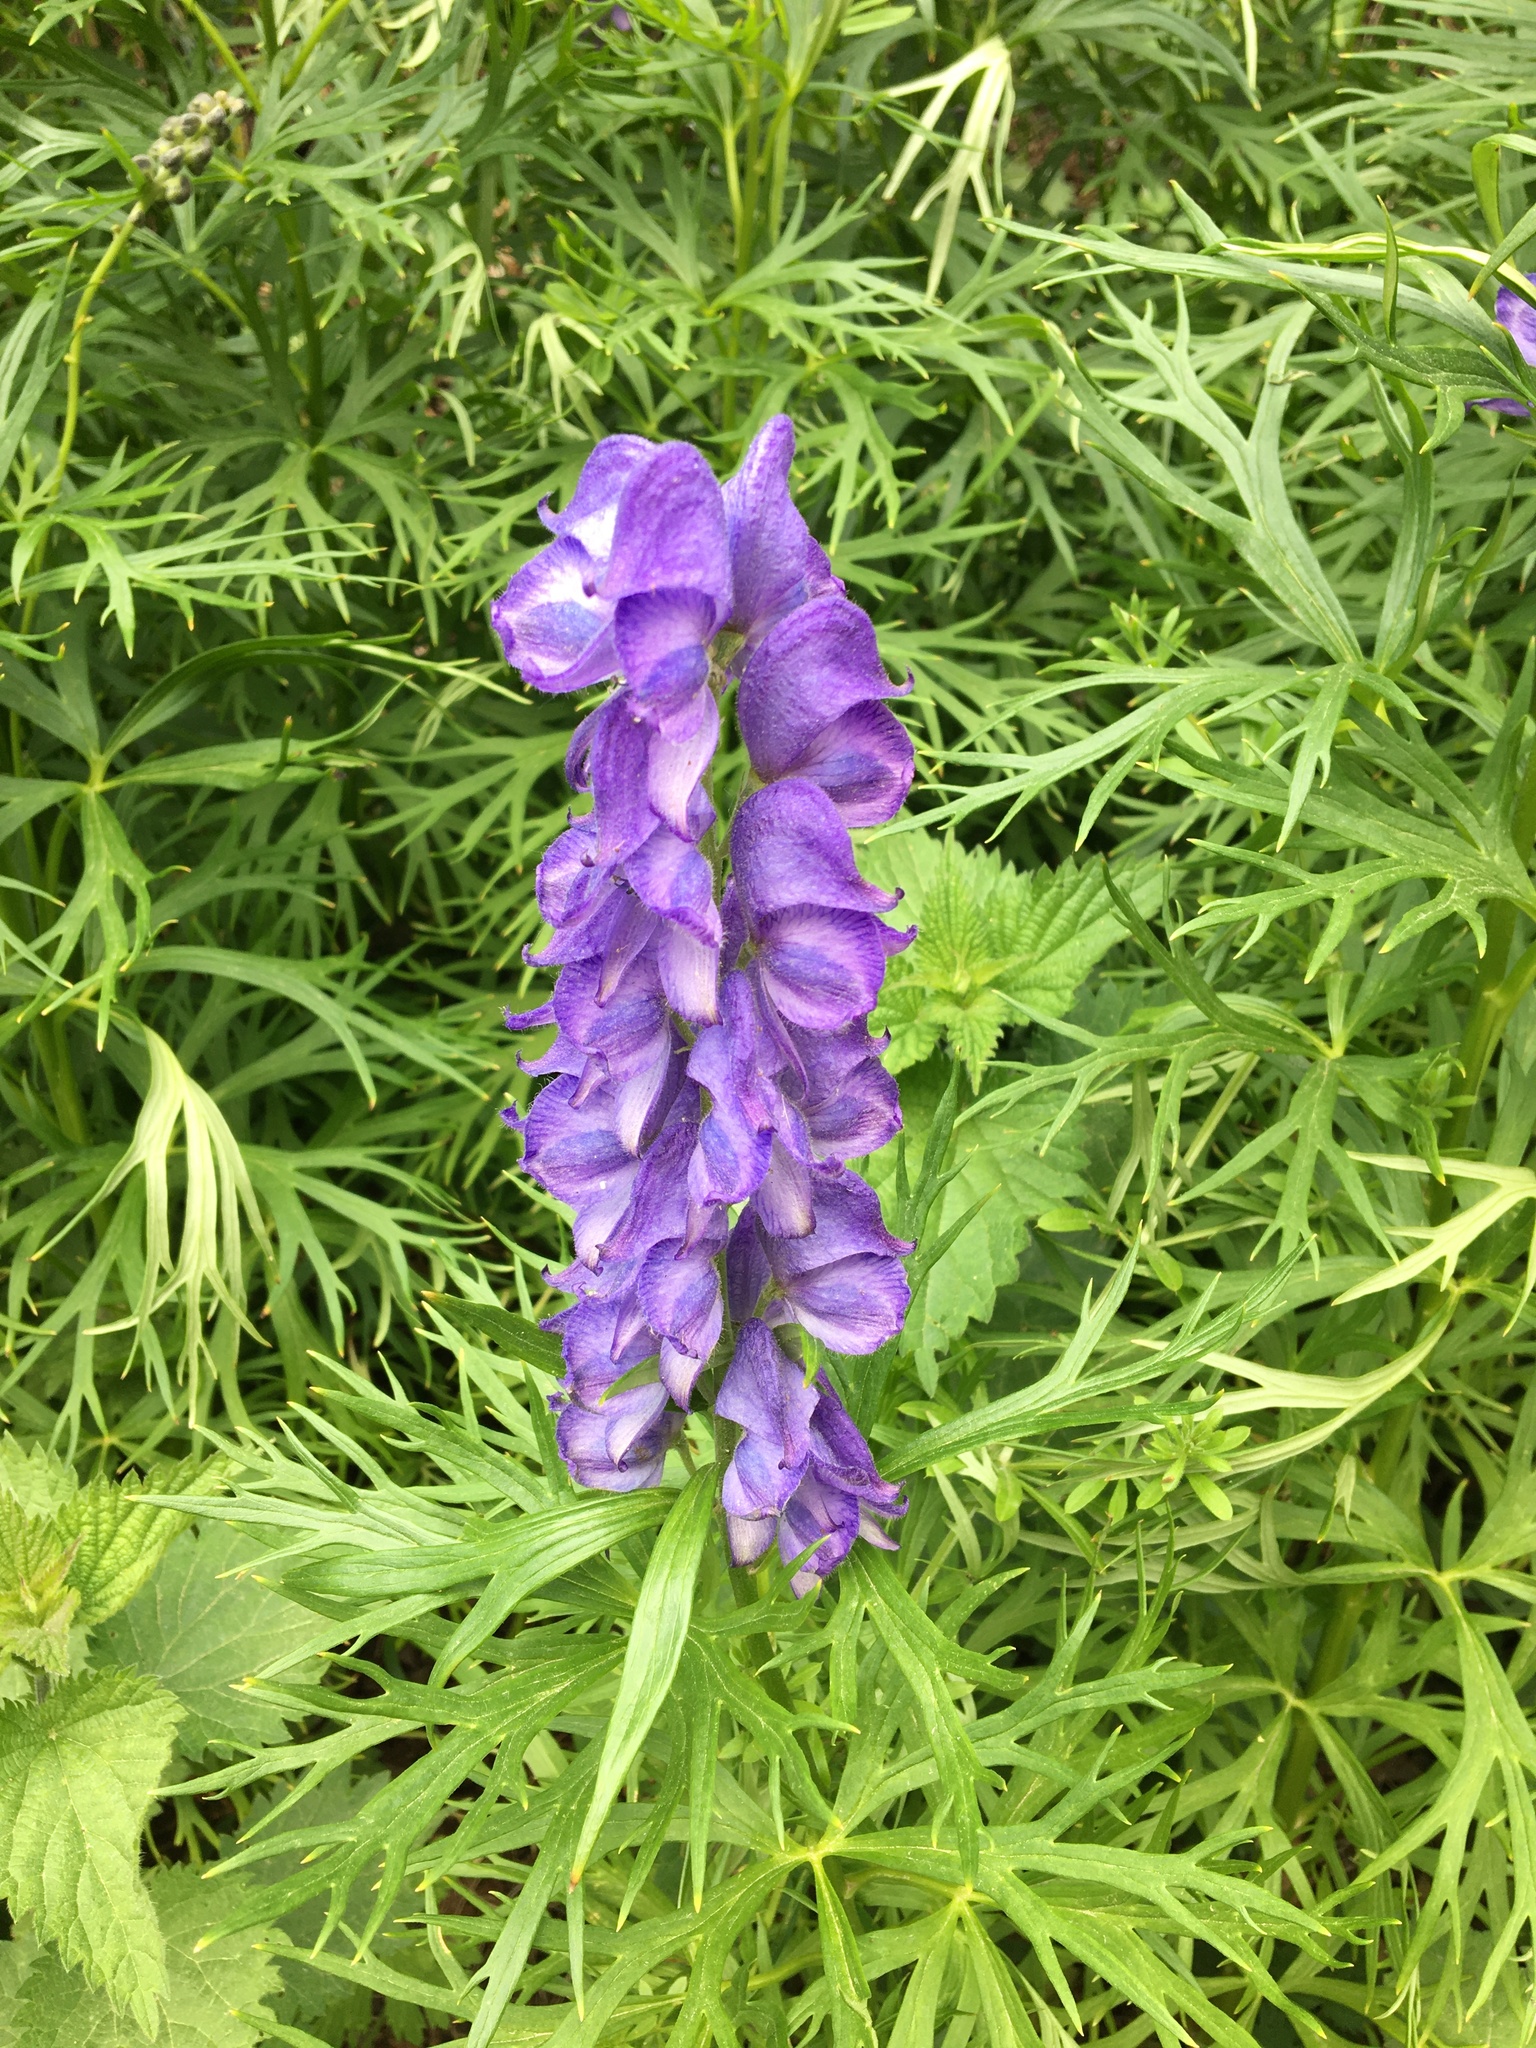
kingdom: Plantae
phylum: Tracheophyta
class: Magnoliopsida
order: Ranunculales
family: Ranunculaceae
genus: Aconitum
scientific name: Aconitum napellus
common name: Garden monkshood
